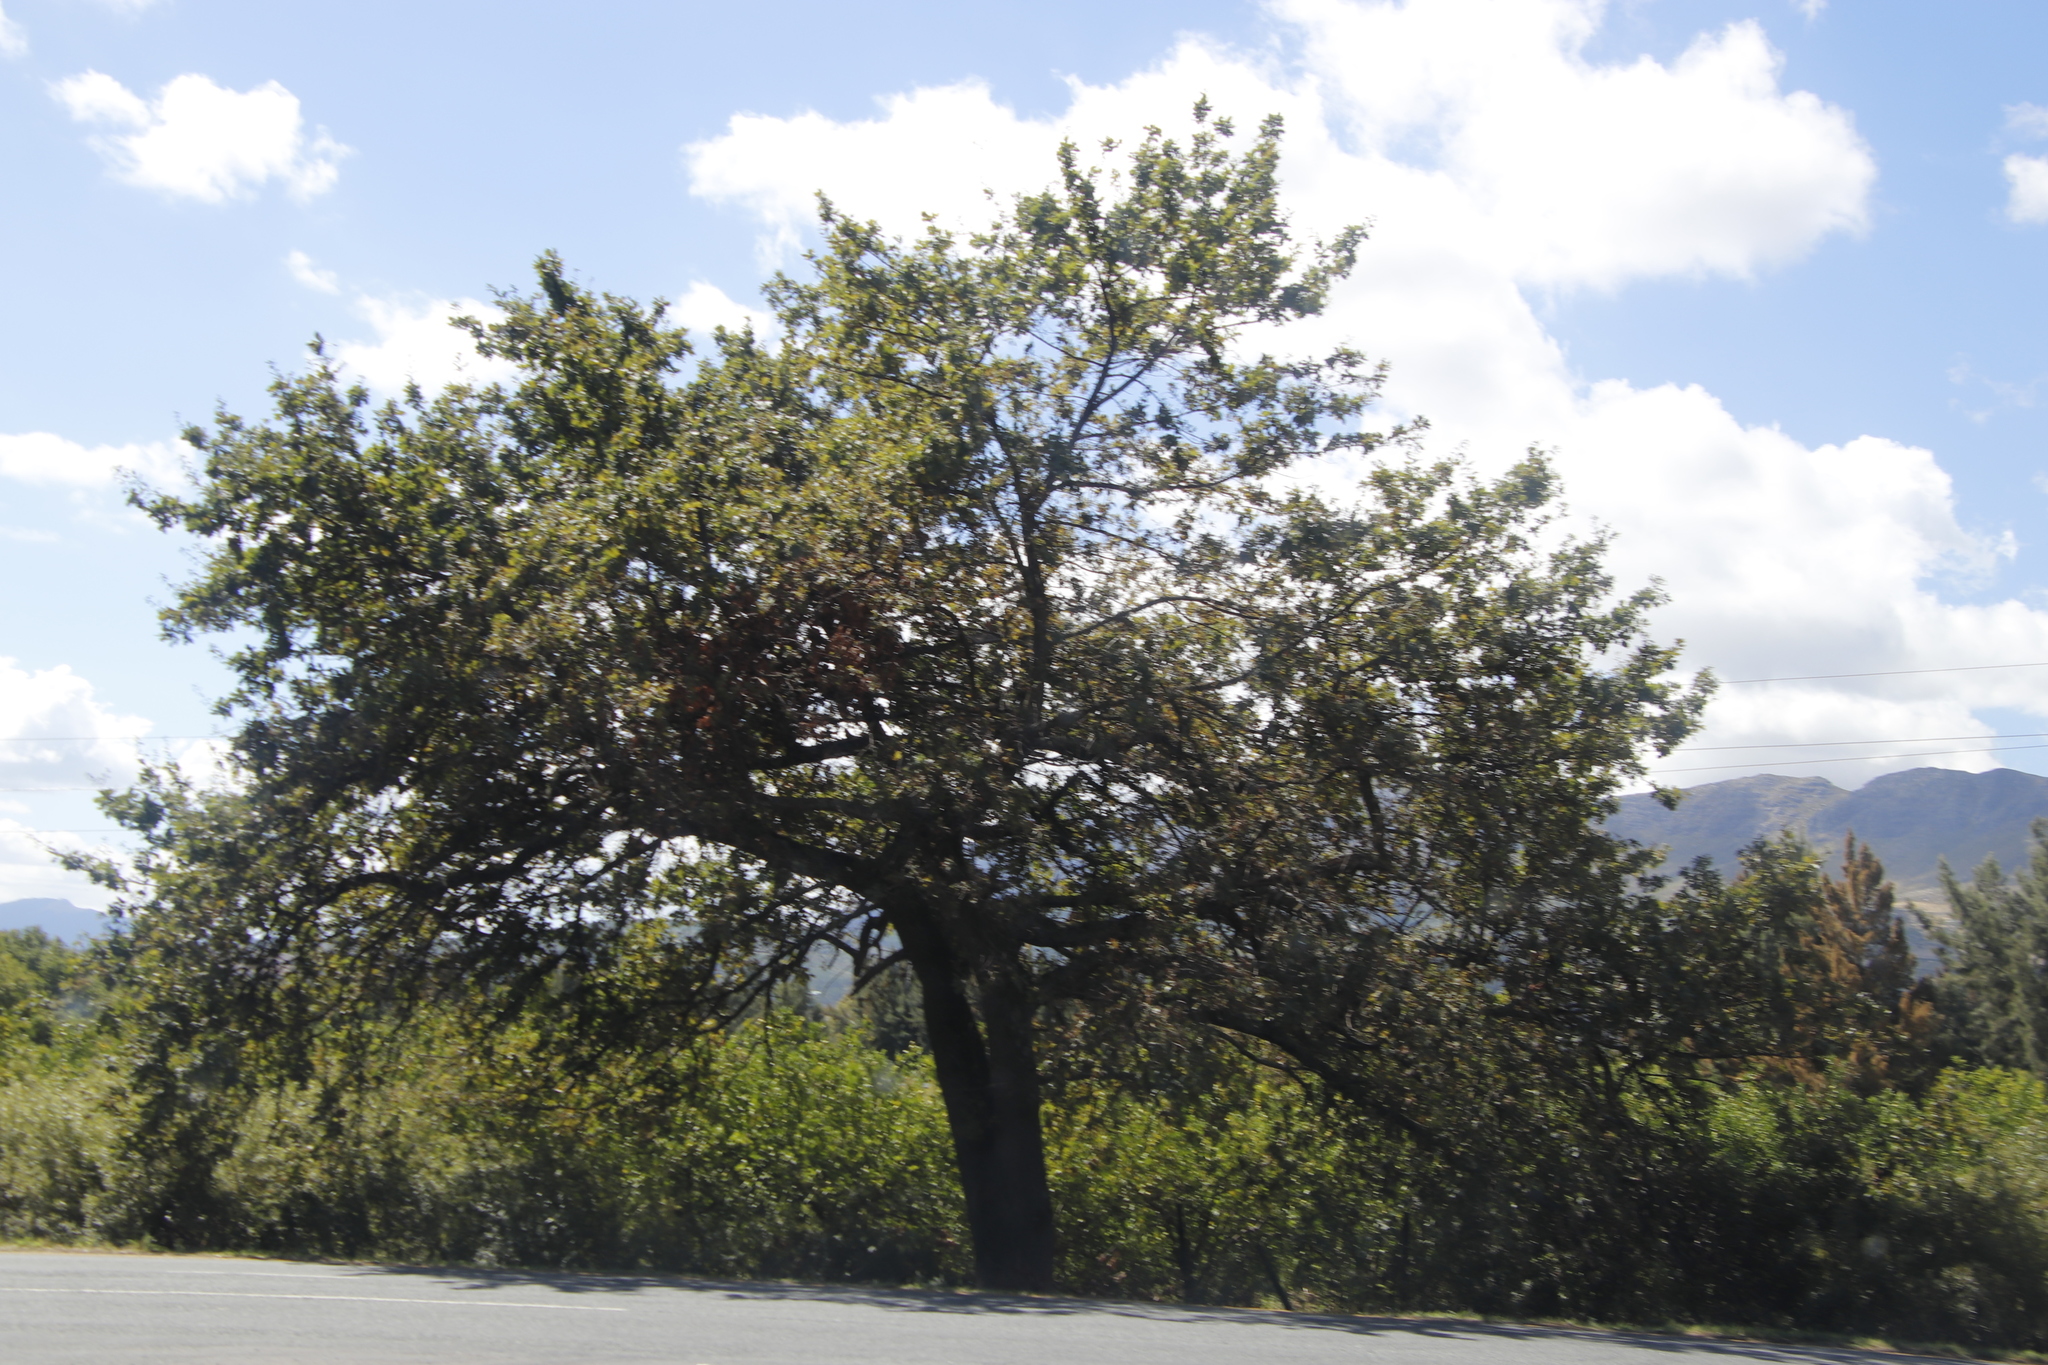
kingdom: Plantae
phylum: Tracheophyta
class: Magnoliopsida
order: Fagales
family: Fagaceae
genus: Quercus
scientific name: Quercus robur
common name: Pedunculate oak
